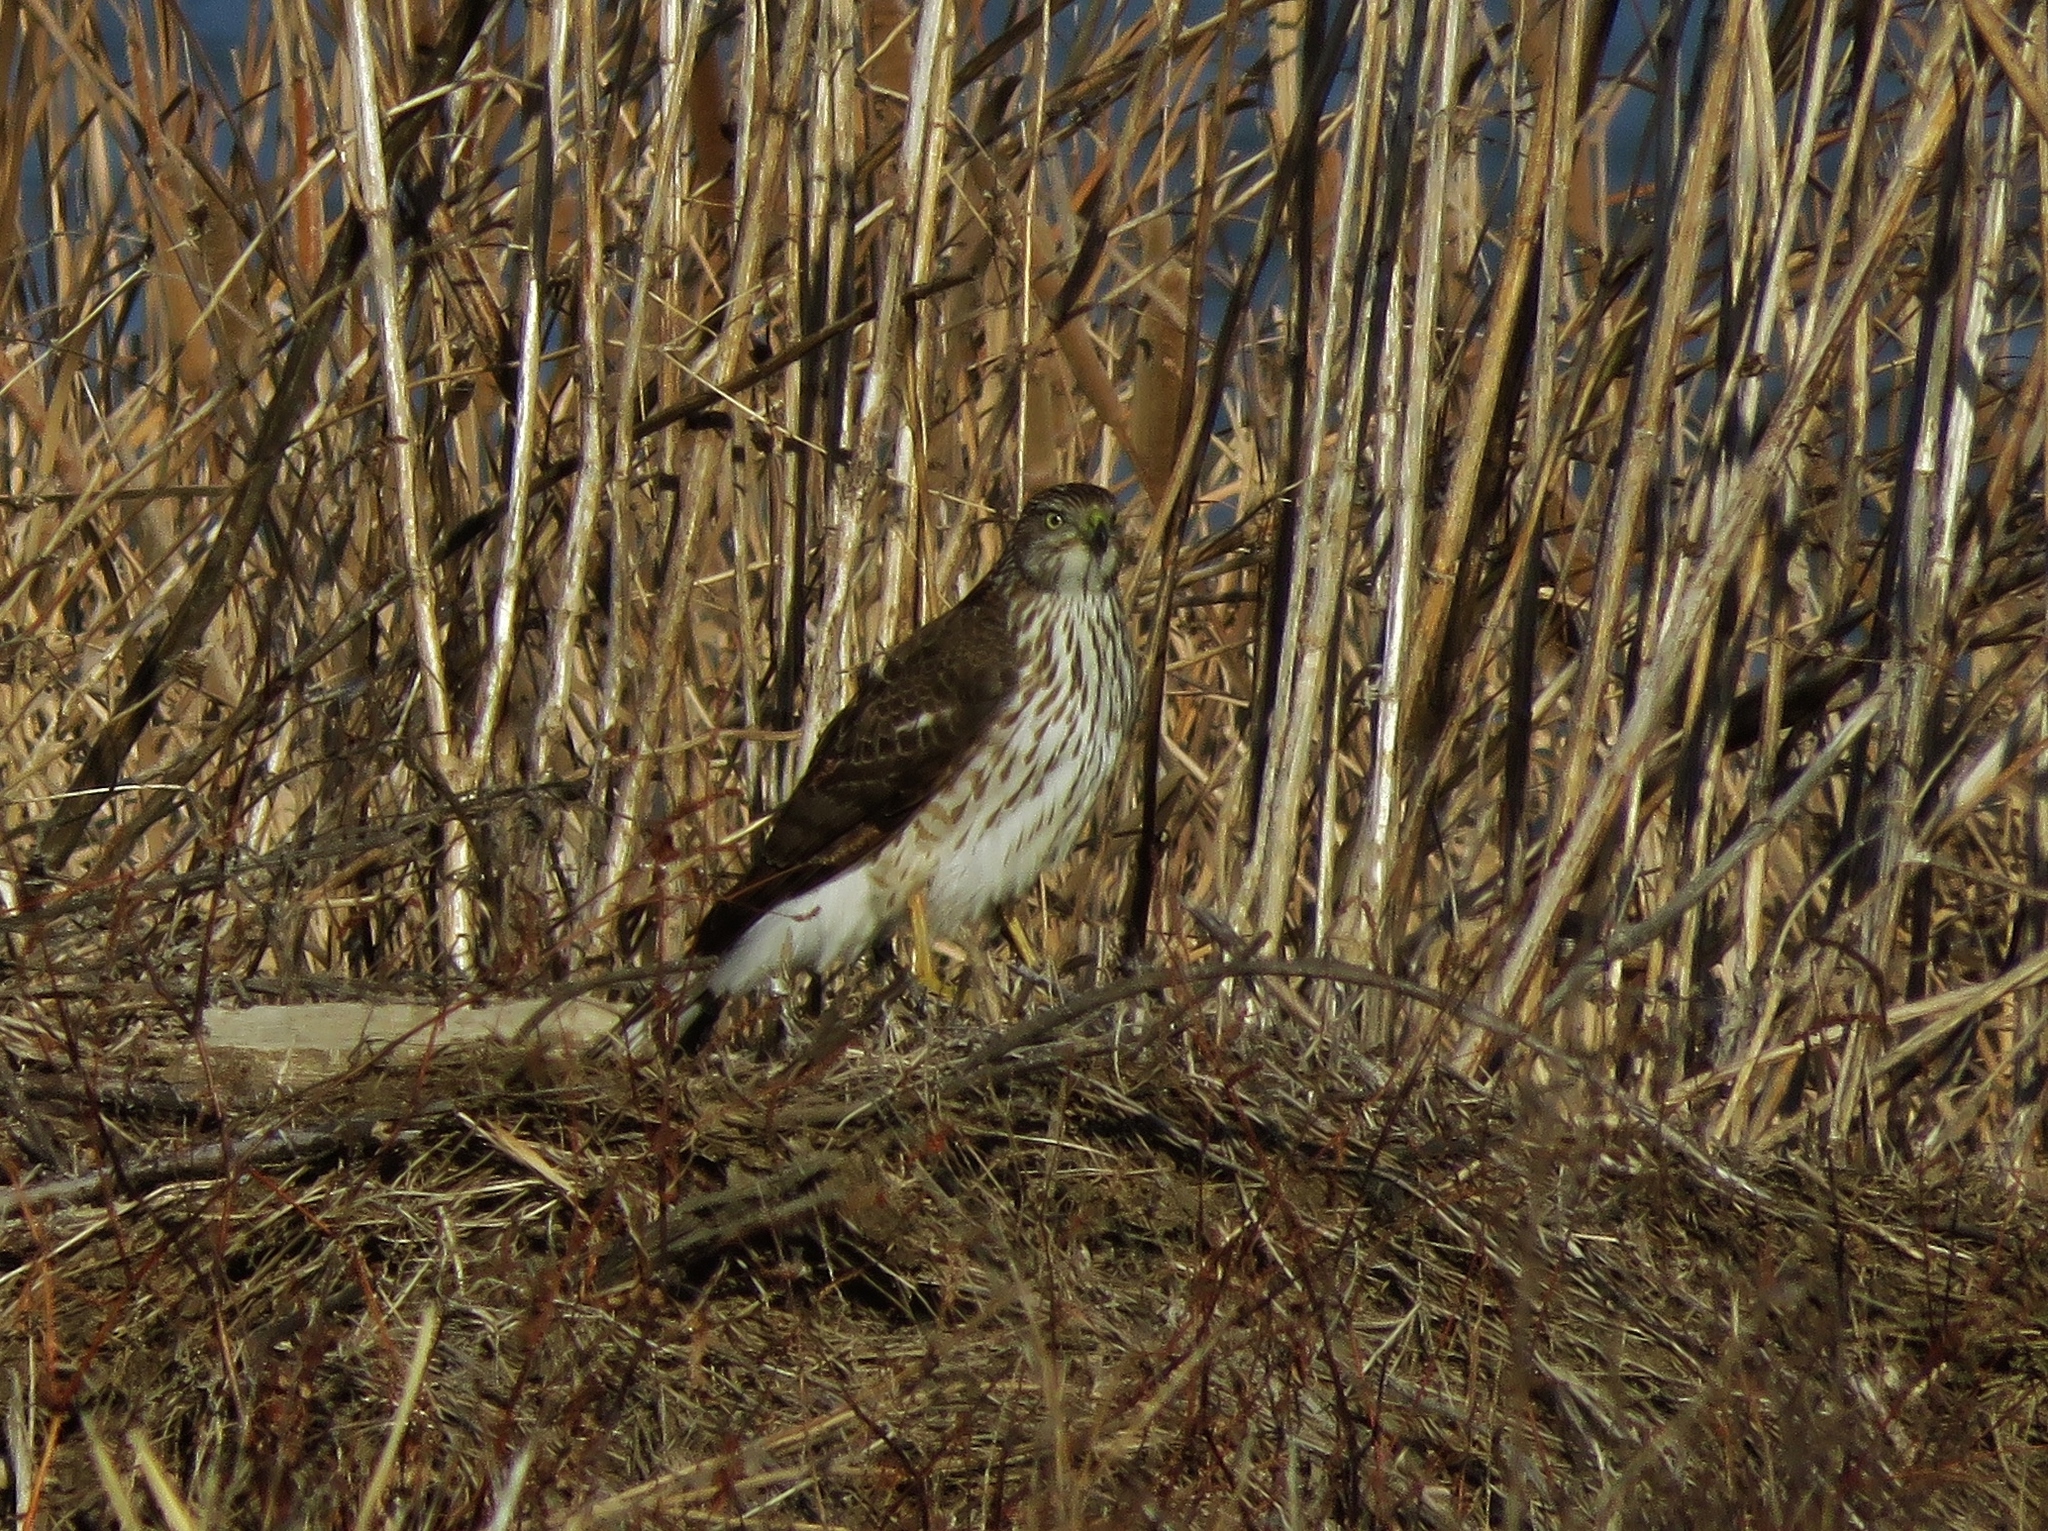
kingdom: Animalia
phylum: Chordata
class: Aves
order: Accipitriformes
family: Accipitridae
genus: Accipiter
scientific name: Accipiter cooperii
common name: Cooper's hawk
